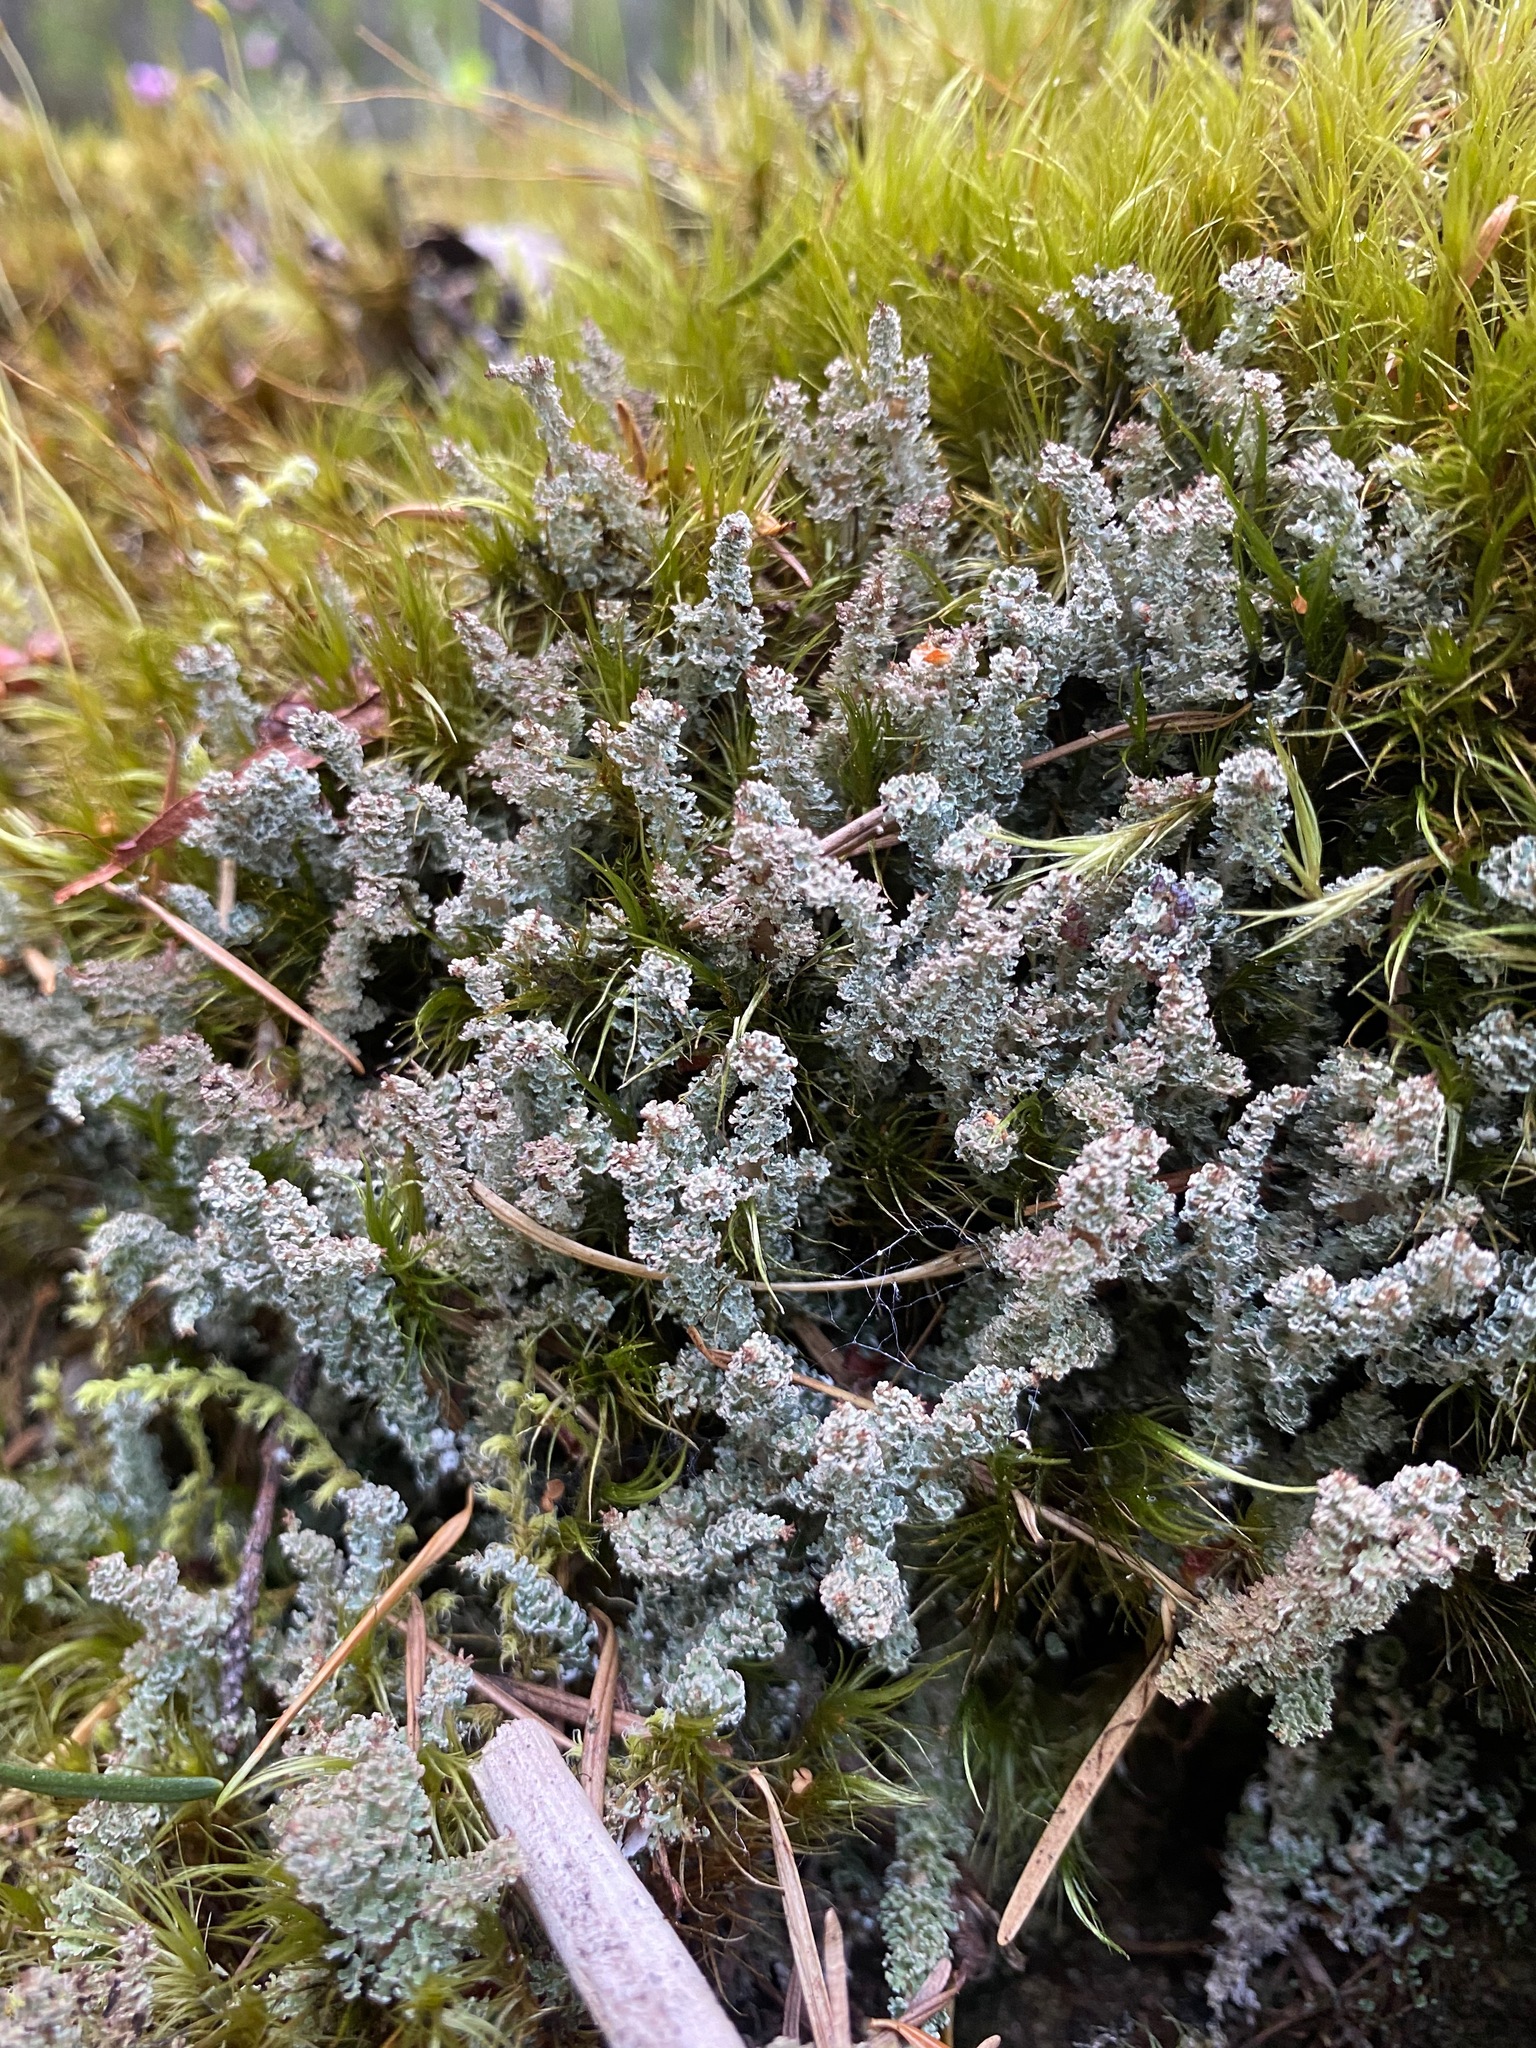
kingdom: Fungi
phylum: Ascomycota
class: Lecanoromycetes
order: Lecanorales
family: Cladoniaceae
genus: Cladonia
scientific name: Cladonia squamosa
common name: Dragon horn
